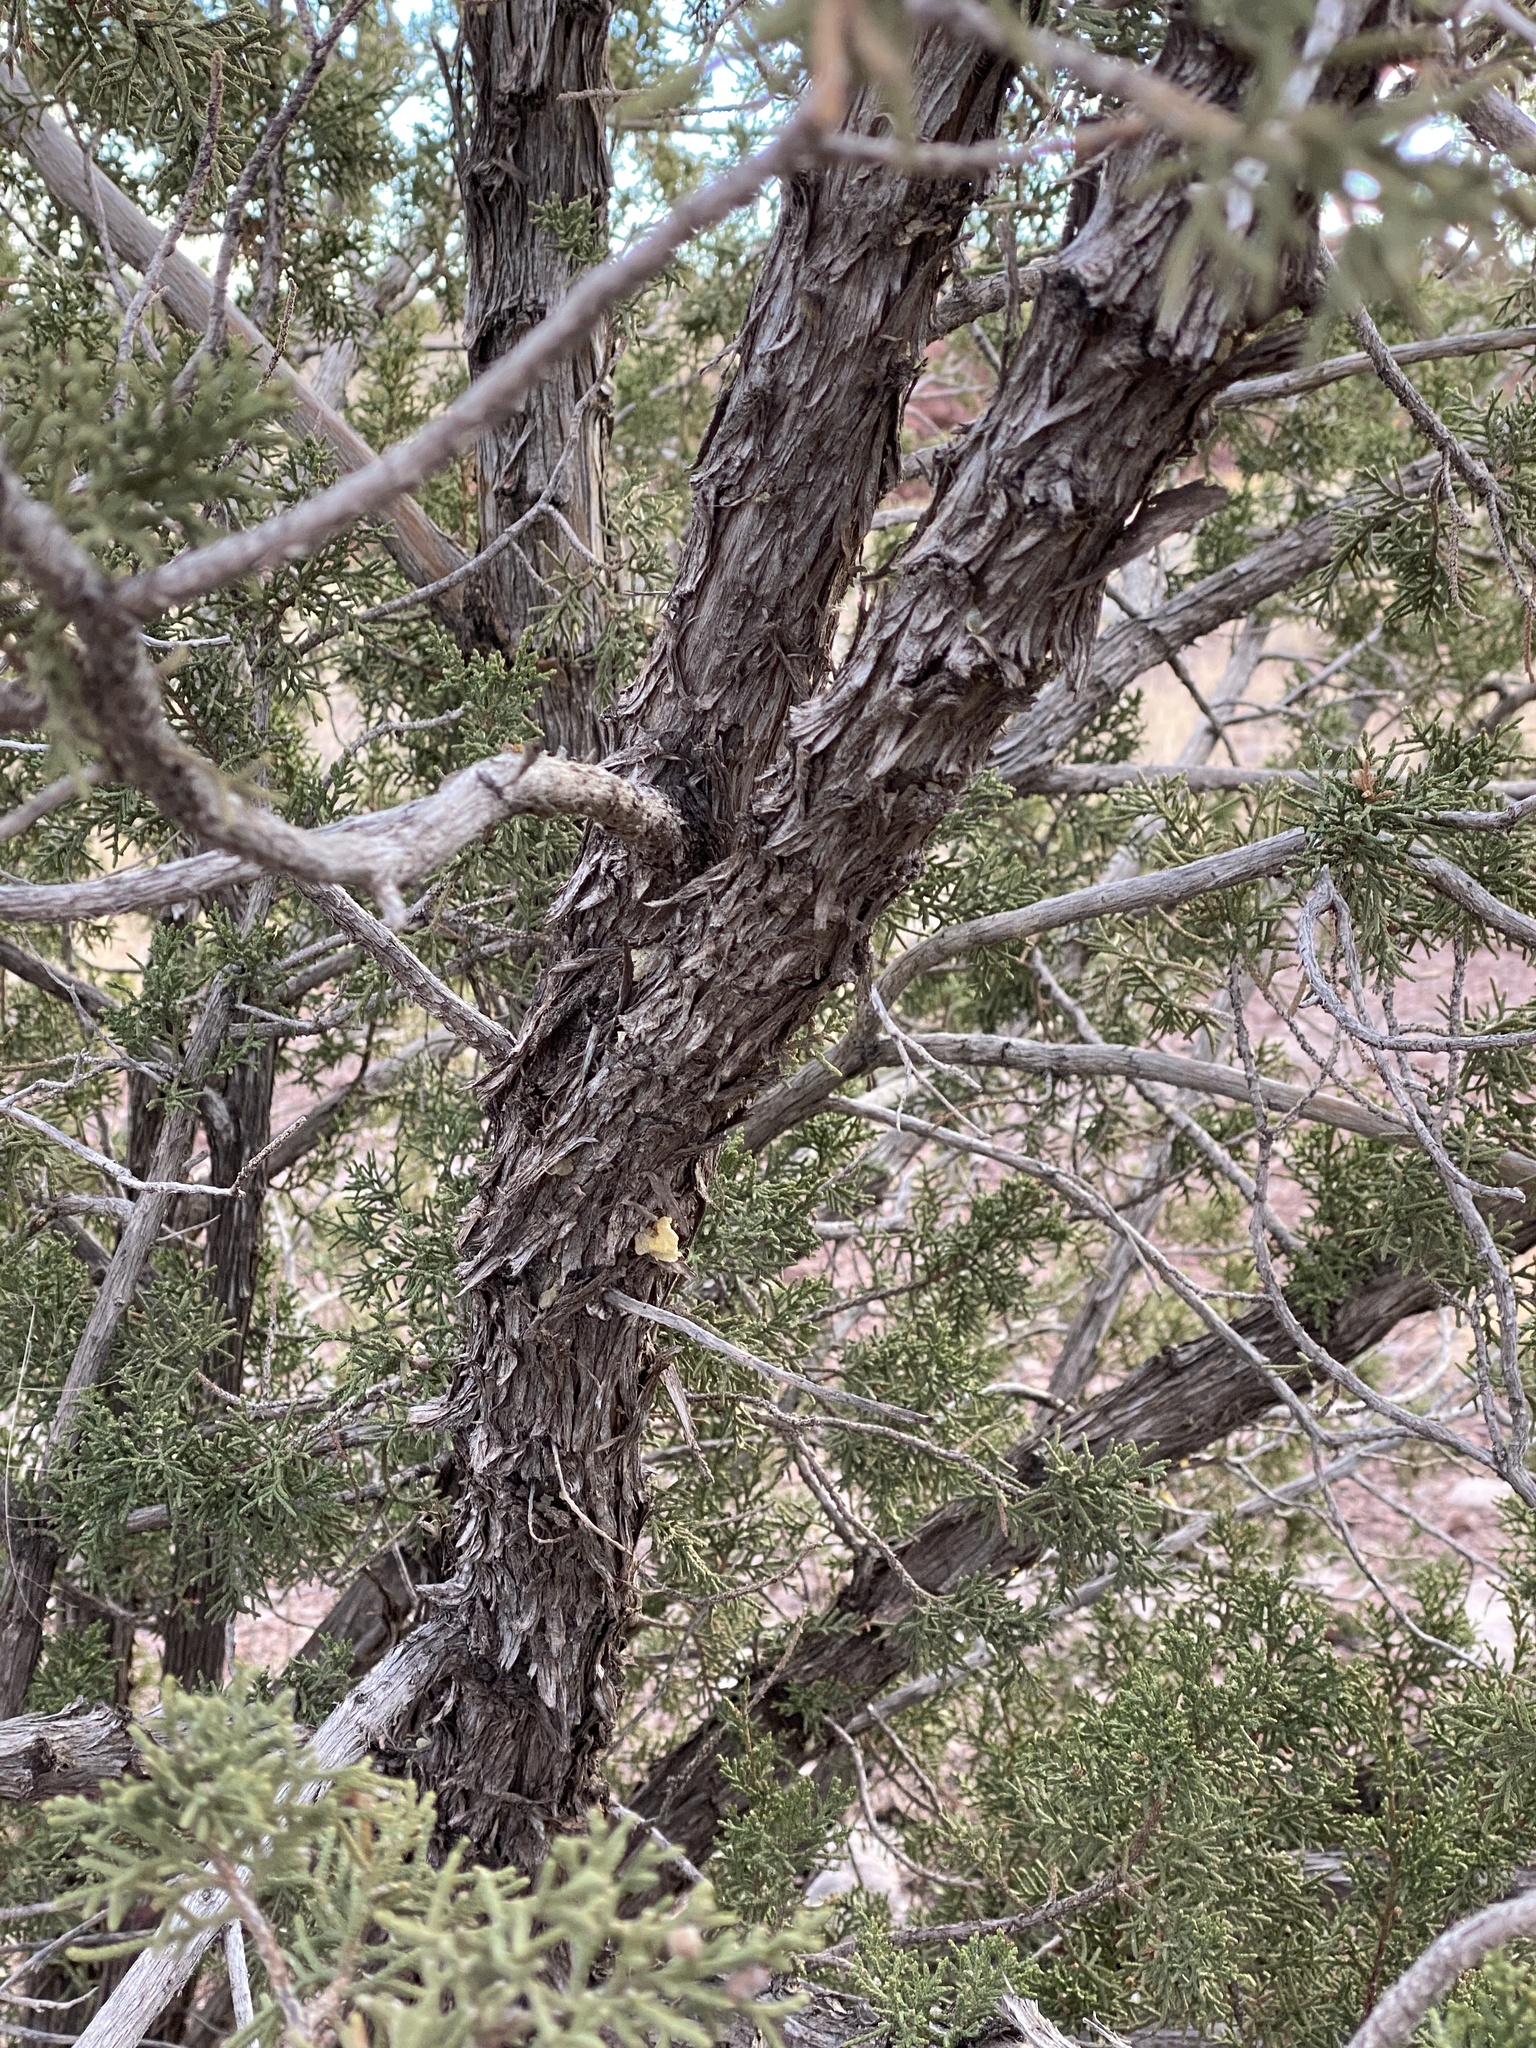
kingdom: Plantae
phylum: Tracheophyta
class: Pinopsida
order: Pinales
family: Cupressaceae
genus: Juniperus
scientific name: Juniperus scopulorum
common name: Rocky mountain juniper
